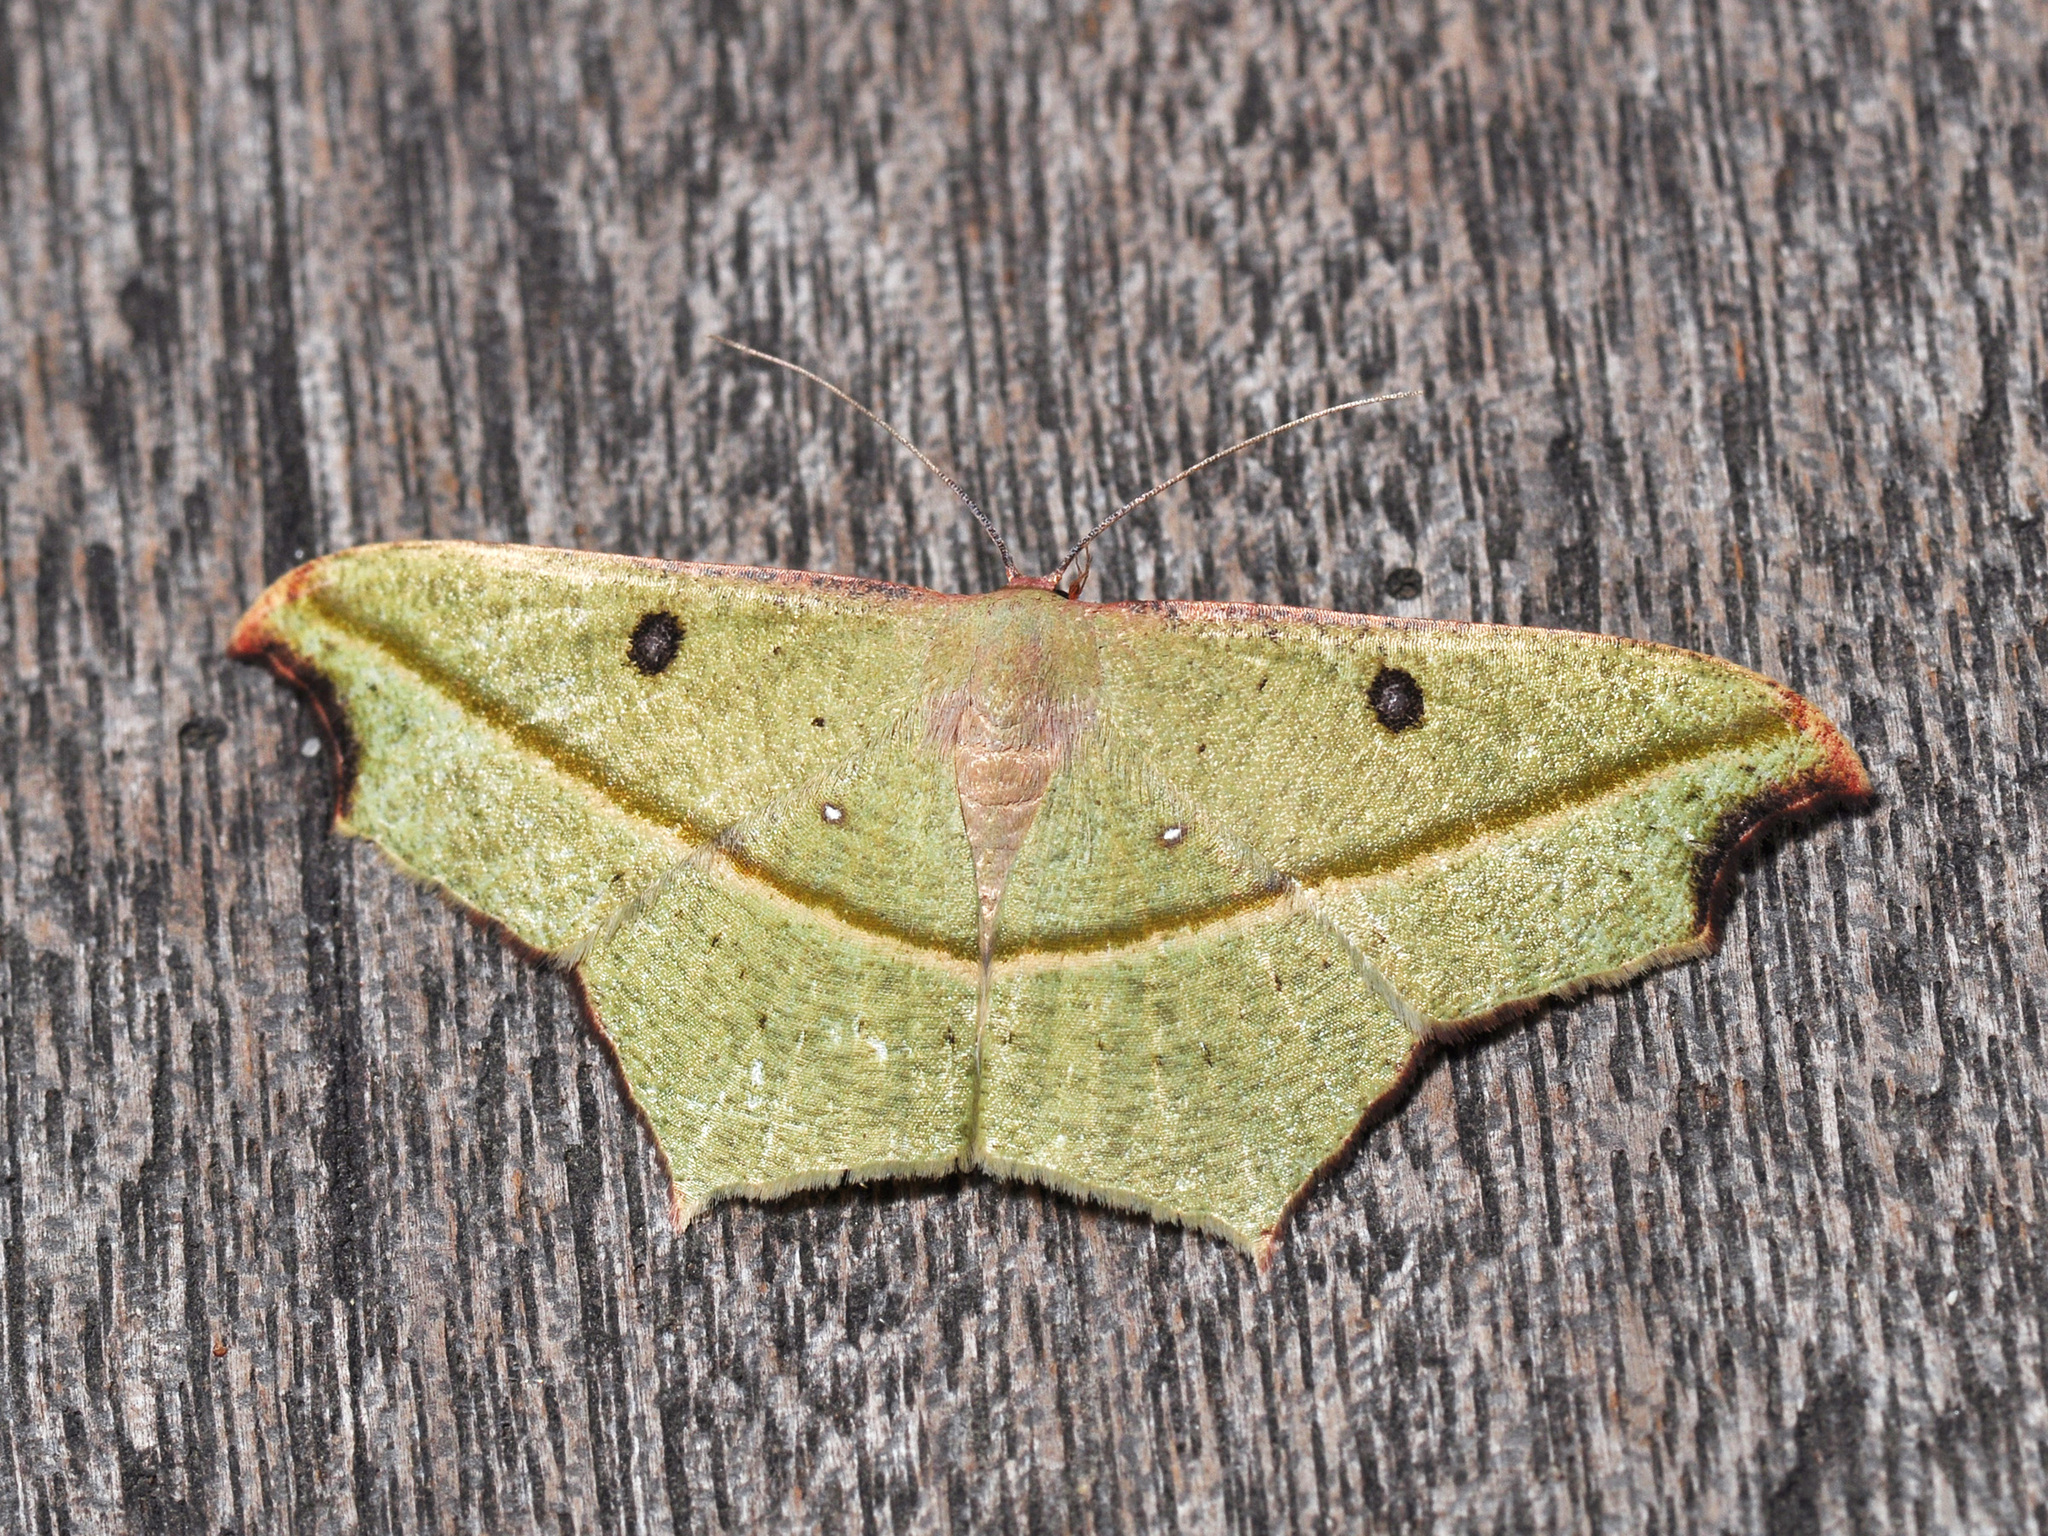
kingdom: Animalia
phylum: Arthropoda
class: Insecta
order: Lepidoptera
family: Geometridae
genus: Traminda
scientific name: Traminda aventiaria
